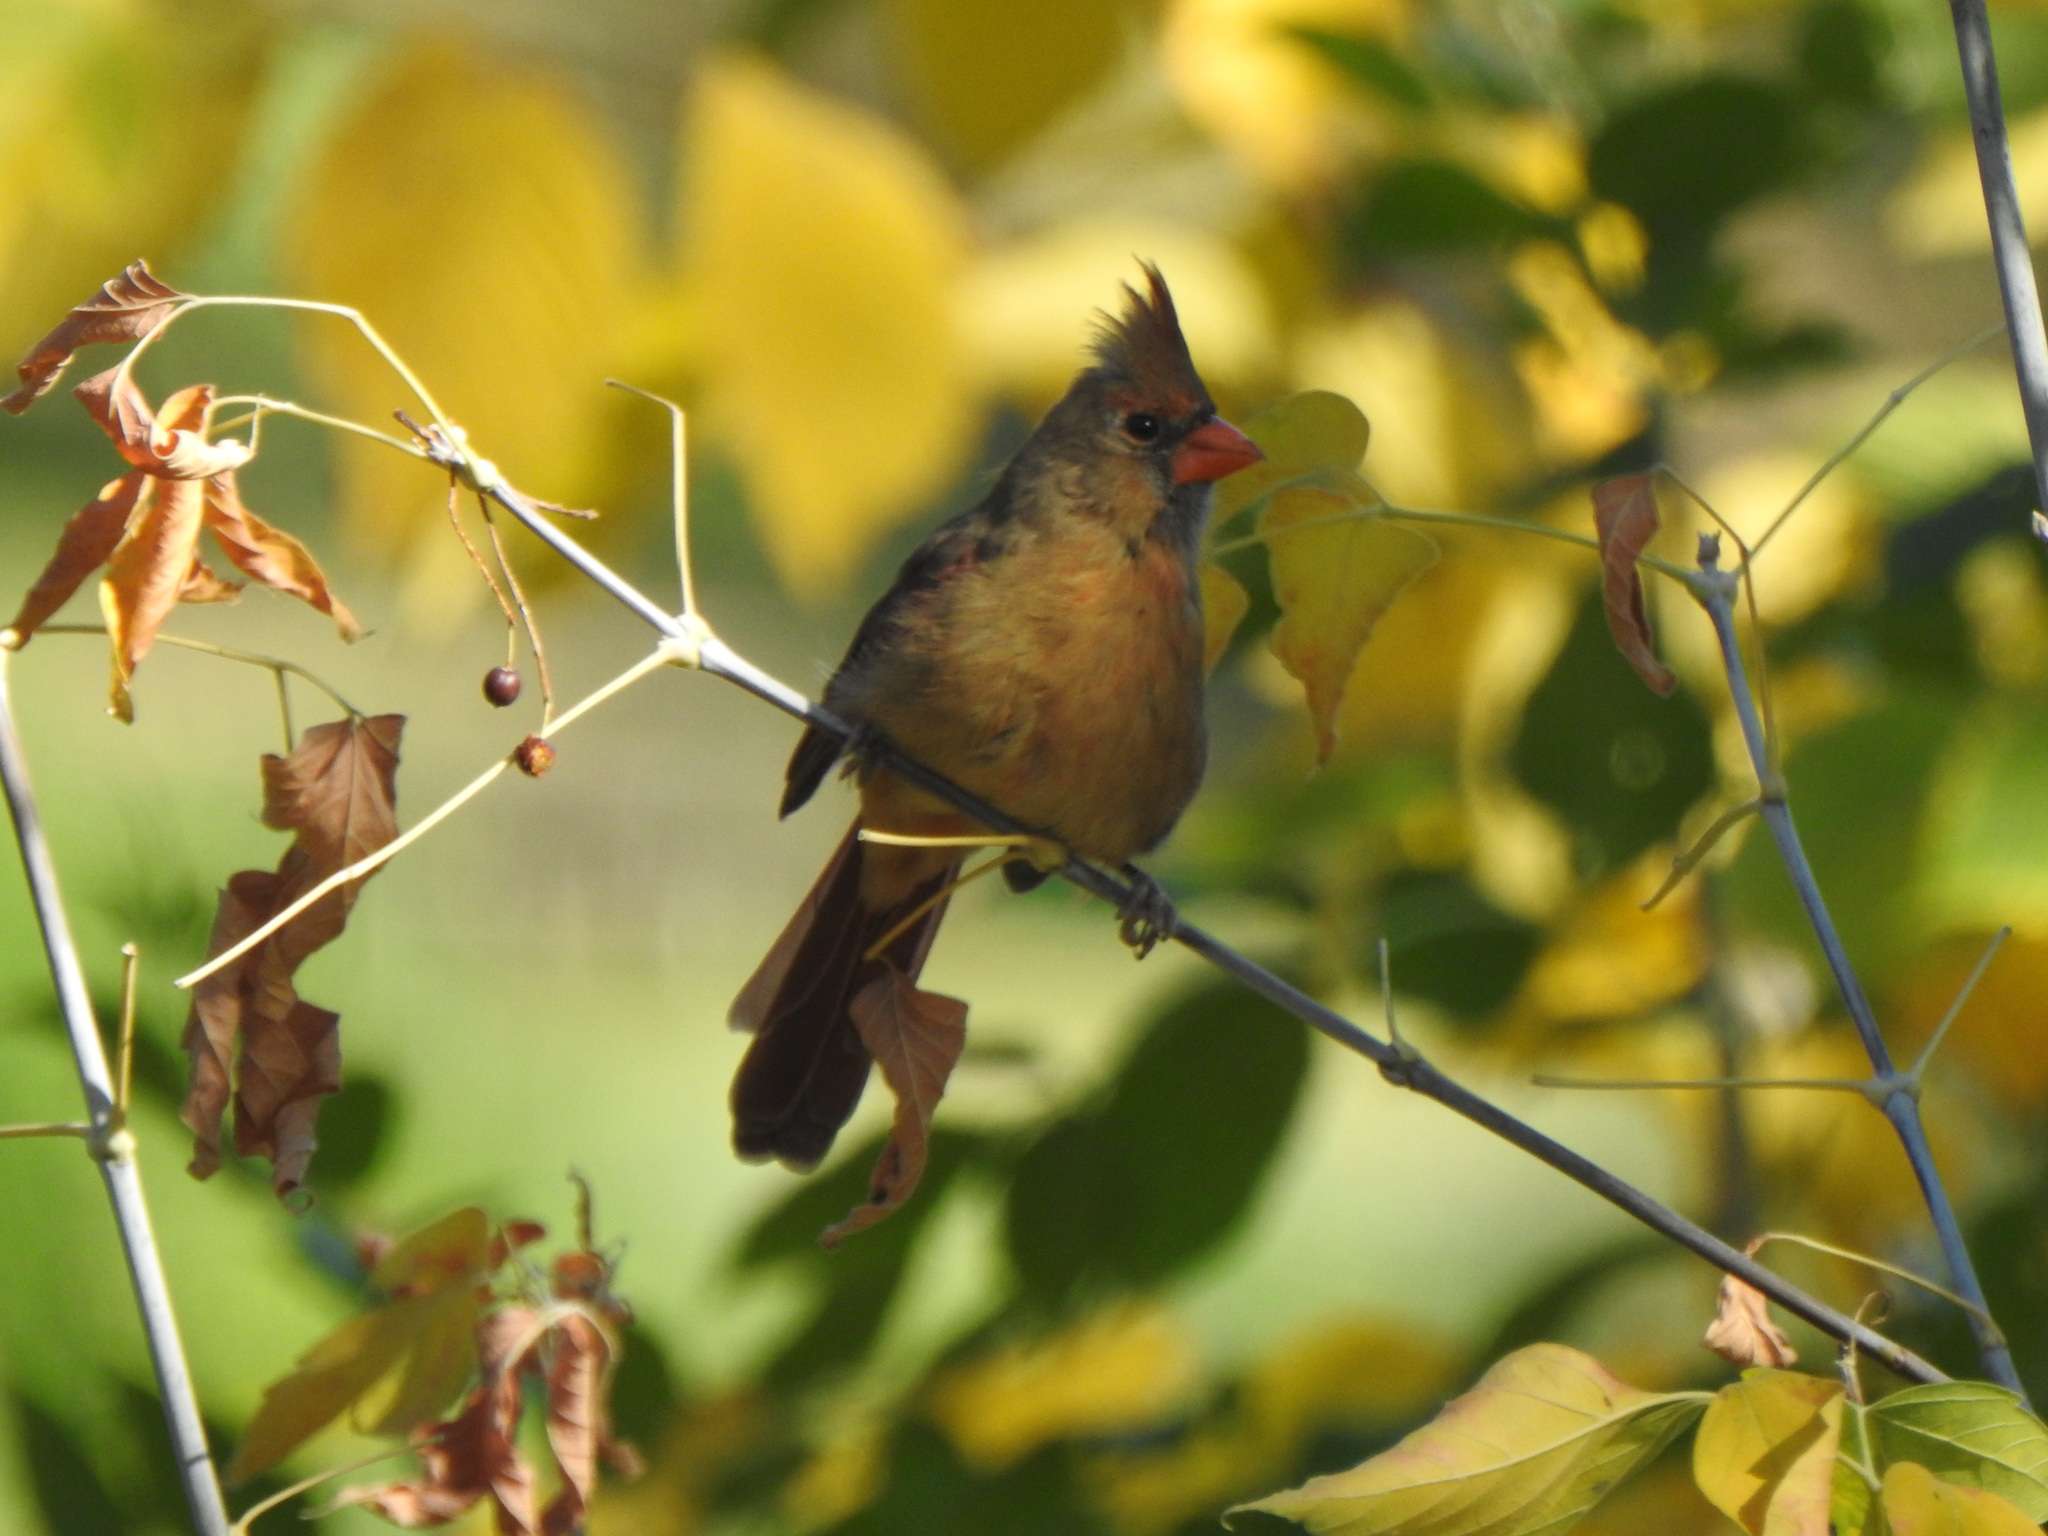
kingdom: Animalia
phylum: Chordata
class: Aves
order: Passeriformes
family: Cardinalidae
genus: Cardinalis
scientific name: Cardinalis cardinalis
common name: Northern cardinal
